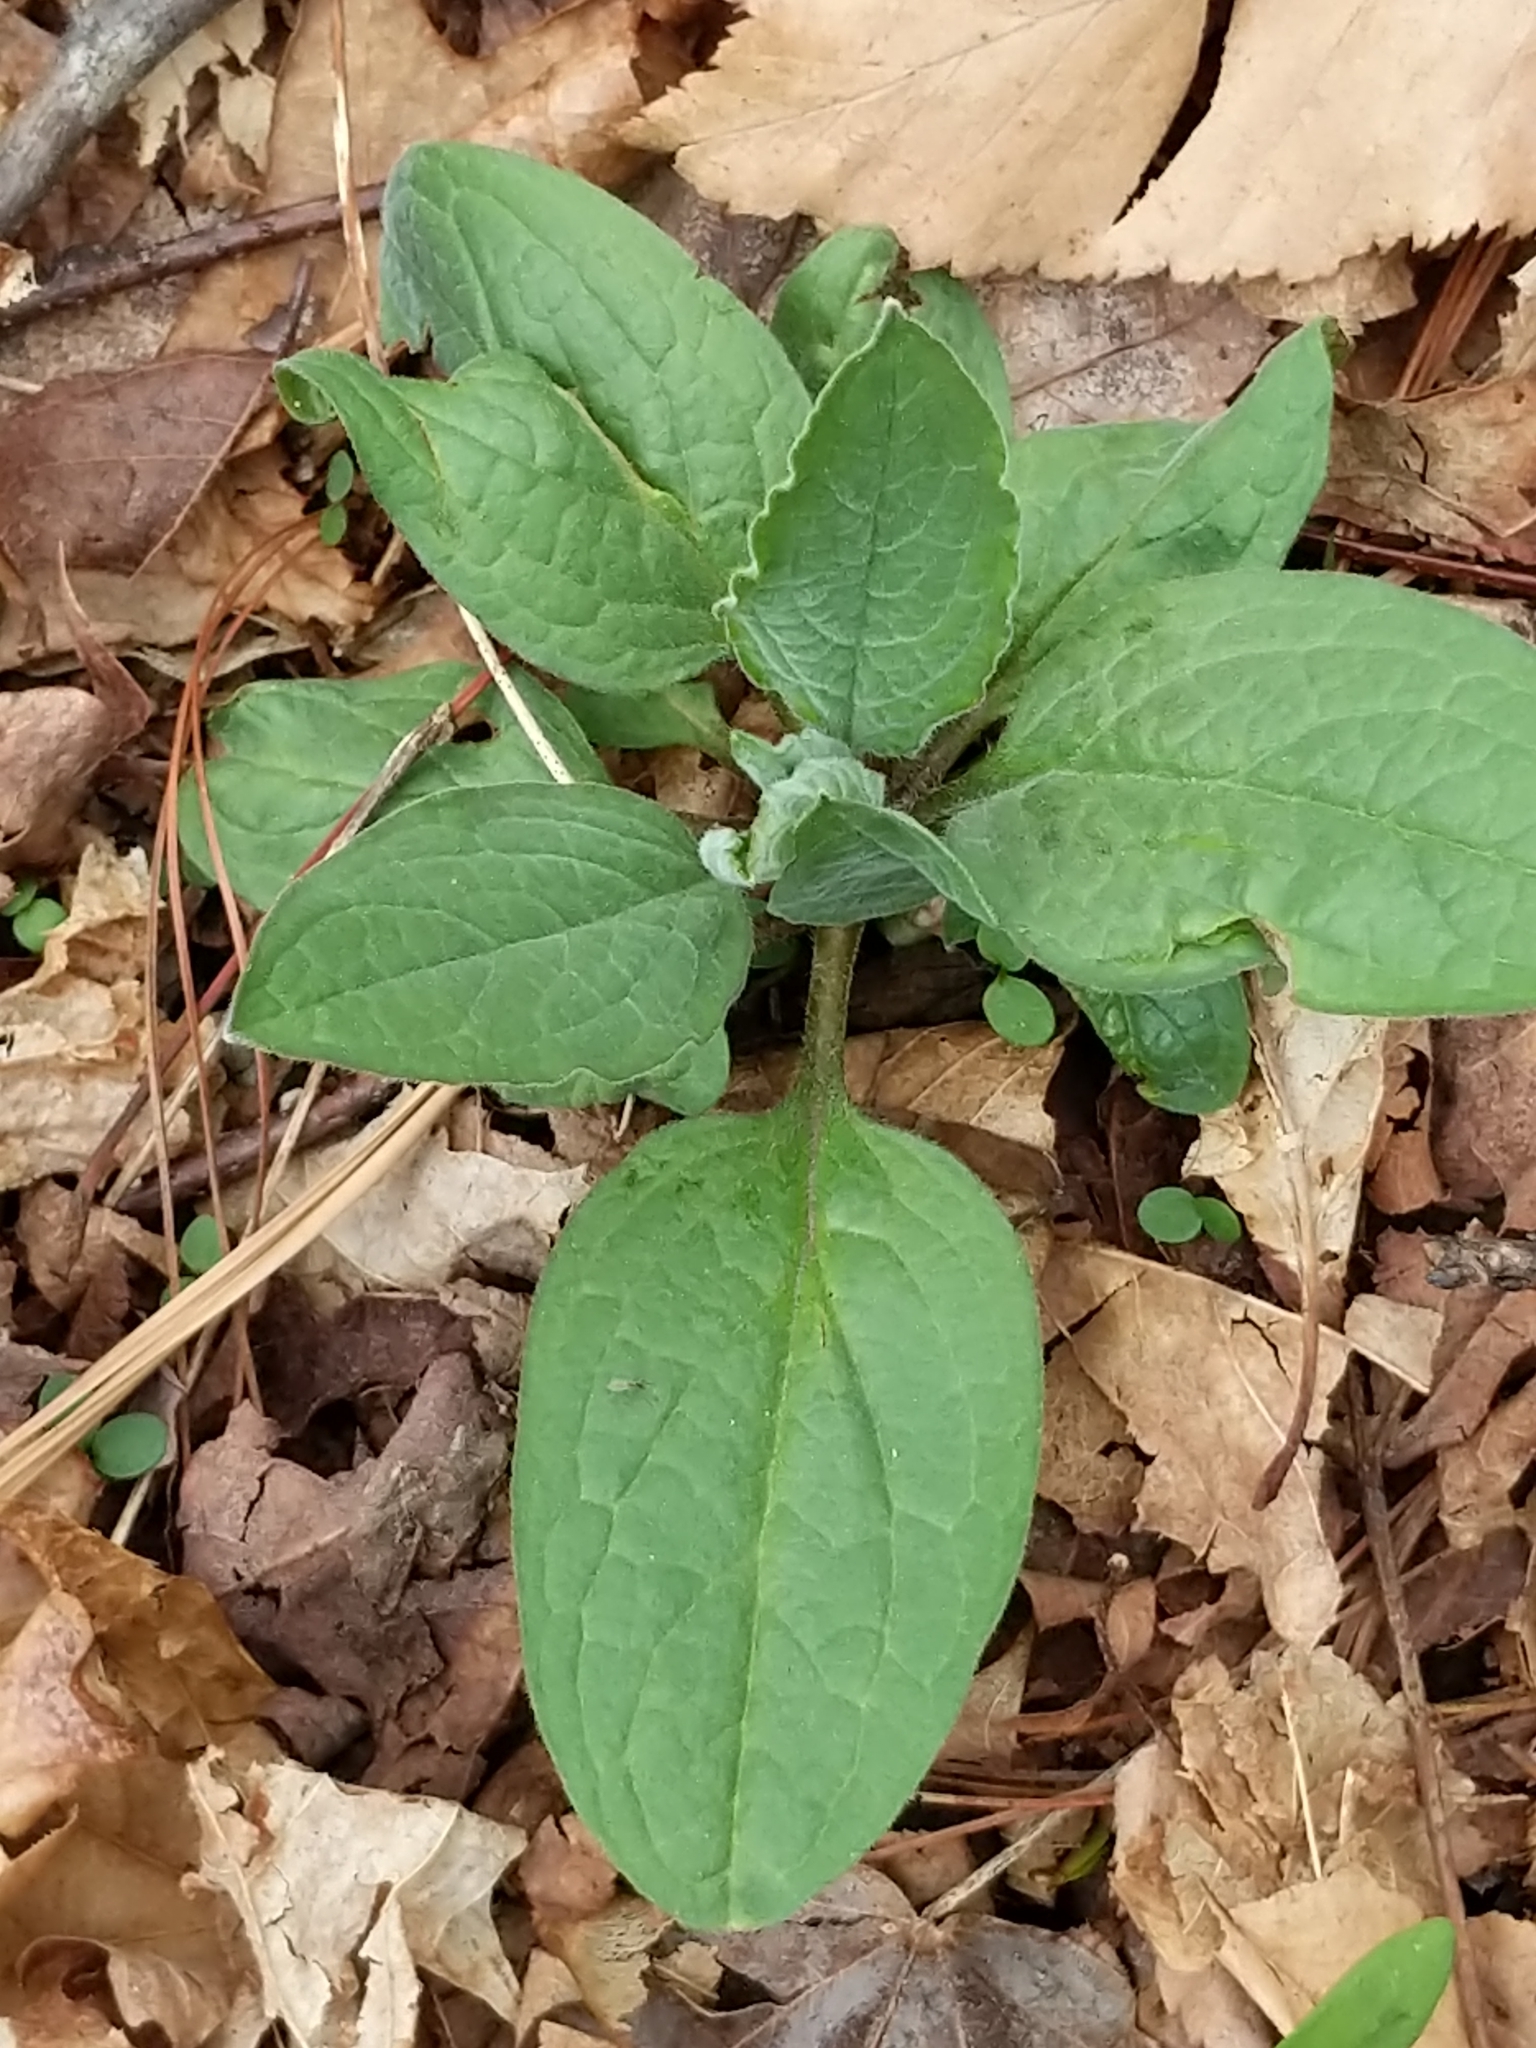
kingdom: Plantae
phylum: Tracheophyta
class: Magnoliopsida
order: Boraginales
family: Boraginaceae
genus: Hackelia
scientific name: Hackelia virginiana
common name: Beggar's-lice
